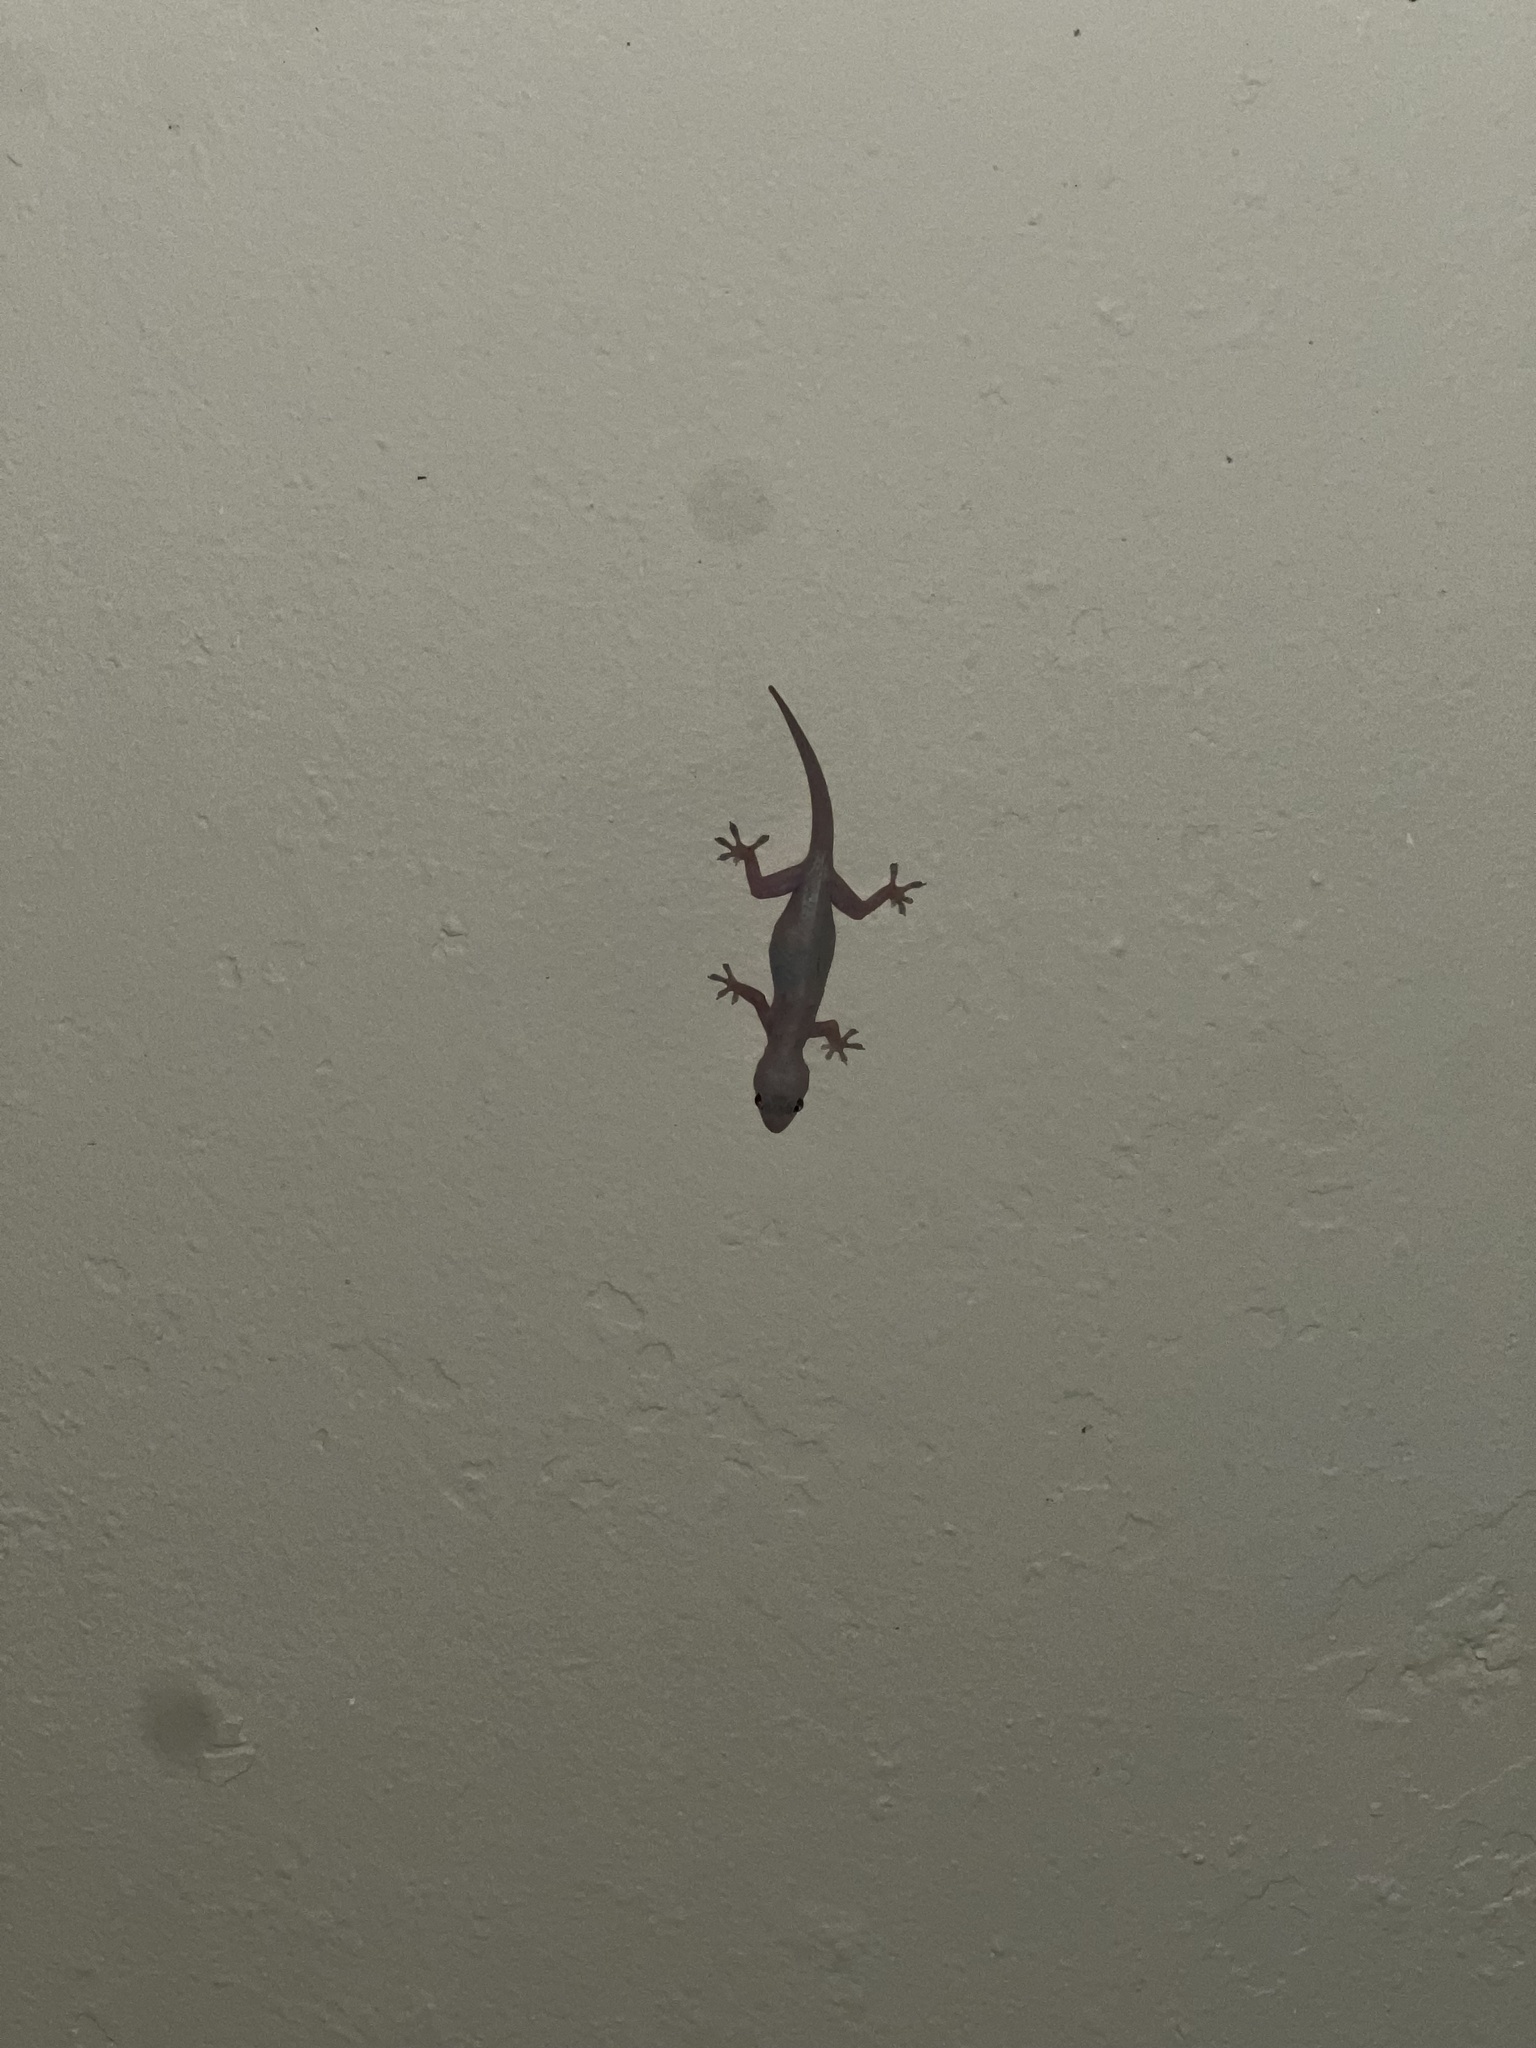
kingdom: Animalia
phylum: Chordata
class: Squamata
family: Gekkonidae
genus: Hemidactylus
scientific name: Hemidactylus mabouia
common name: House gecko
